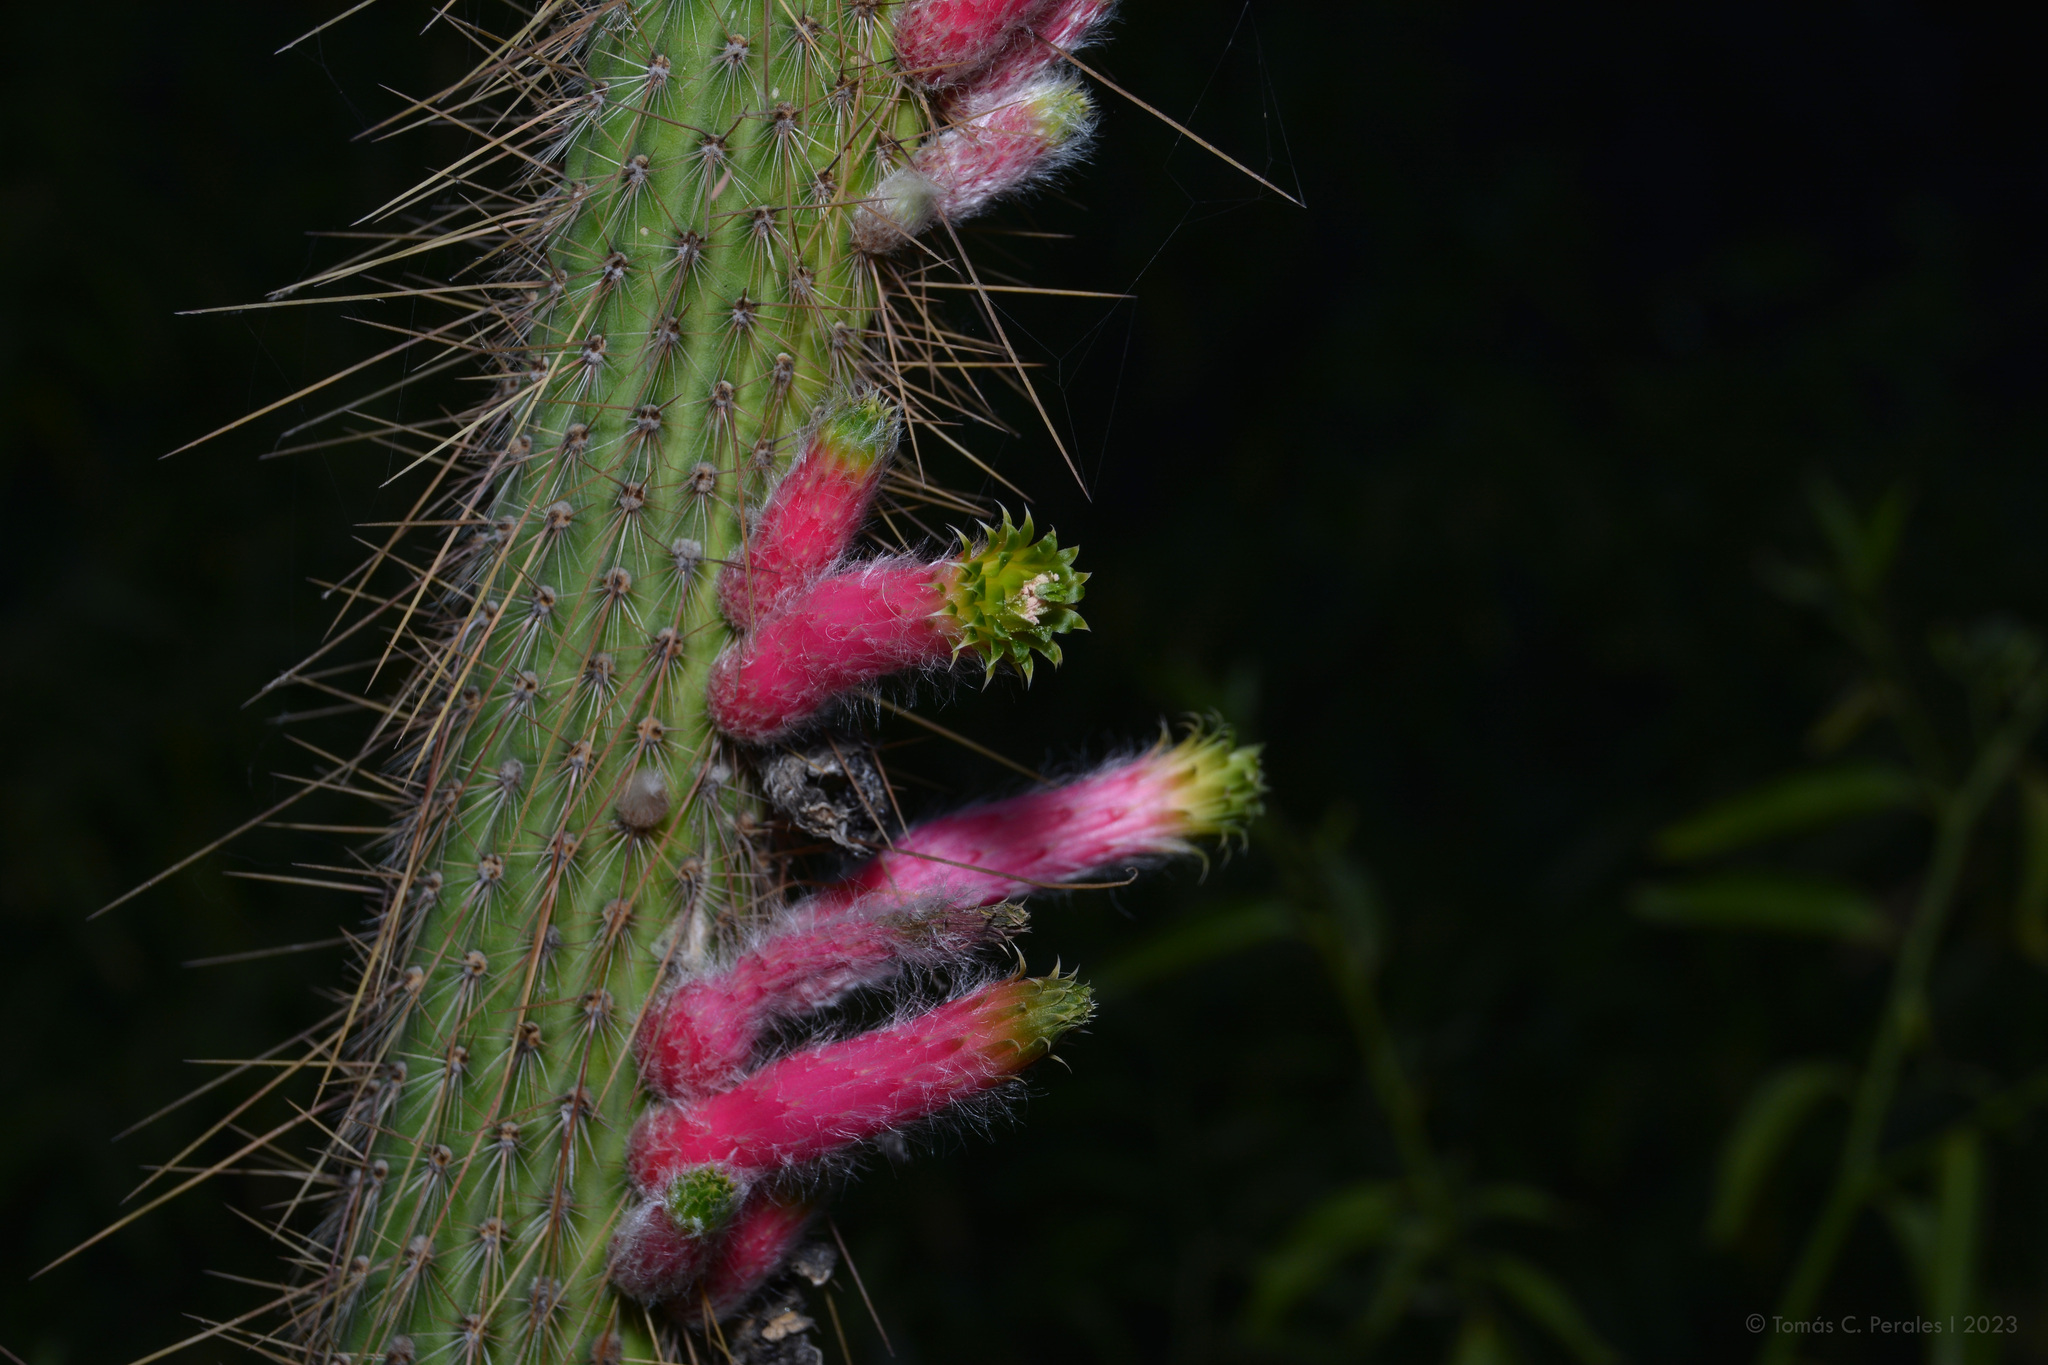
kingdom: Plantae
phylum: Tracheophyta
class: Magnoliopsida
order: Caryophyllales
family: Cactaceae
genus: Cleistocactus
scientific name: Cleistocactus smaragdiflorus
